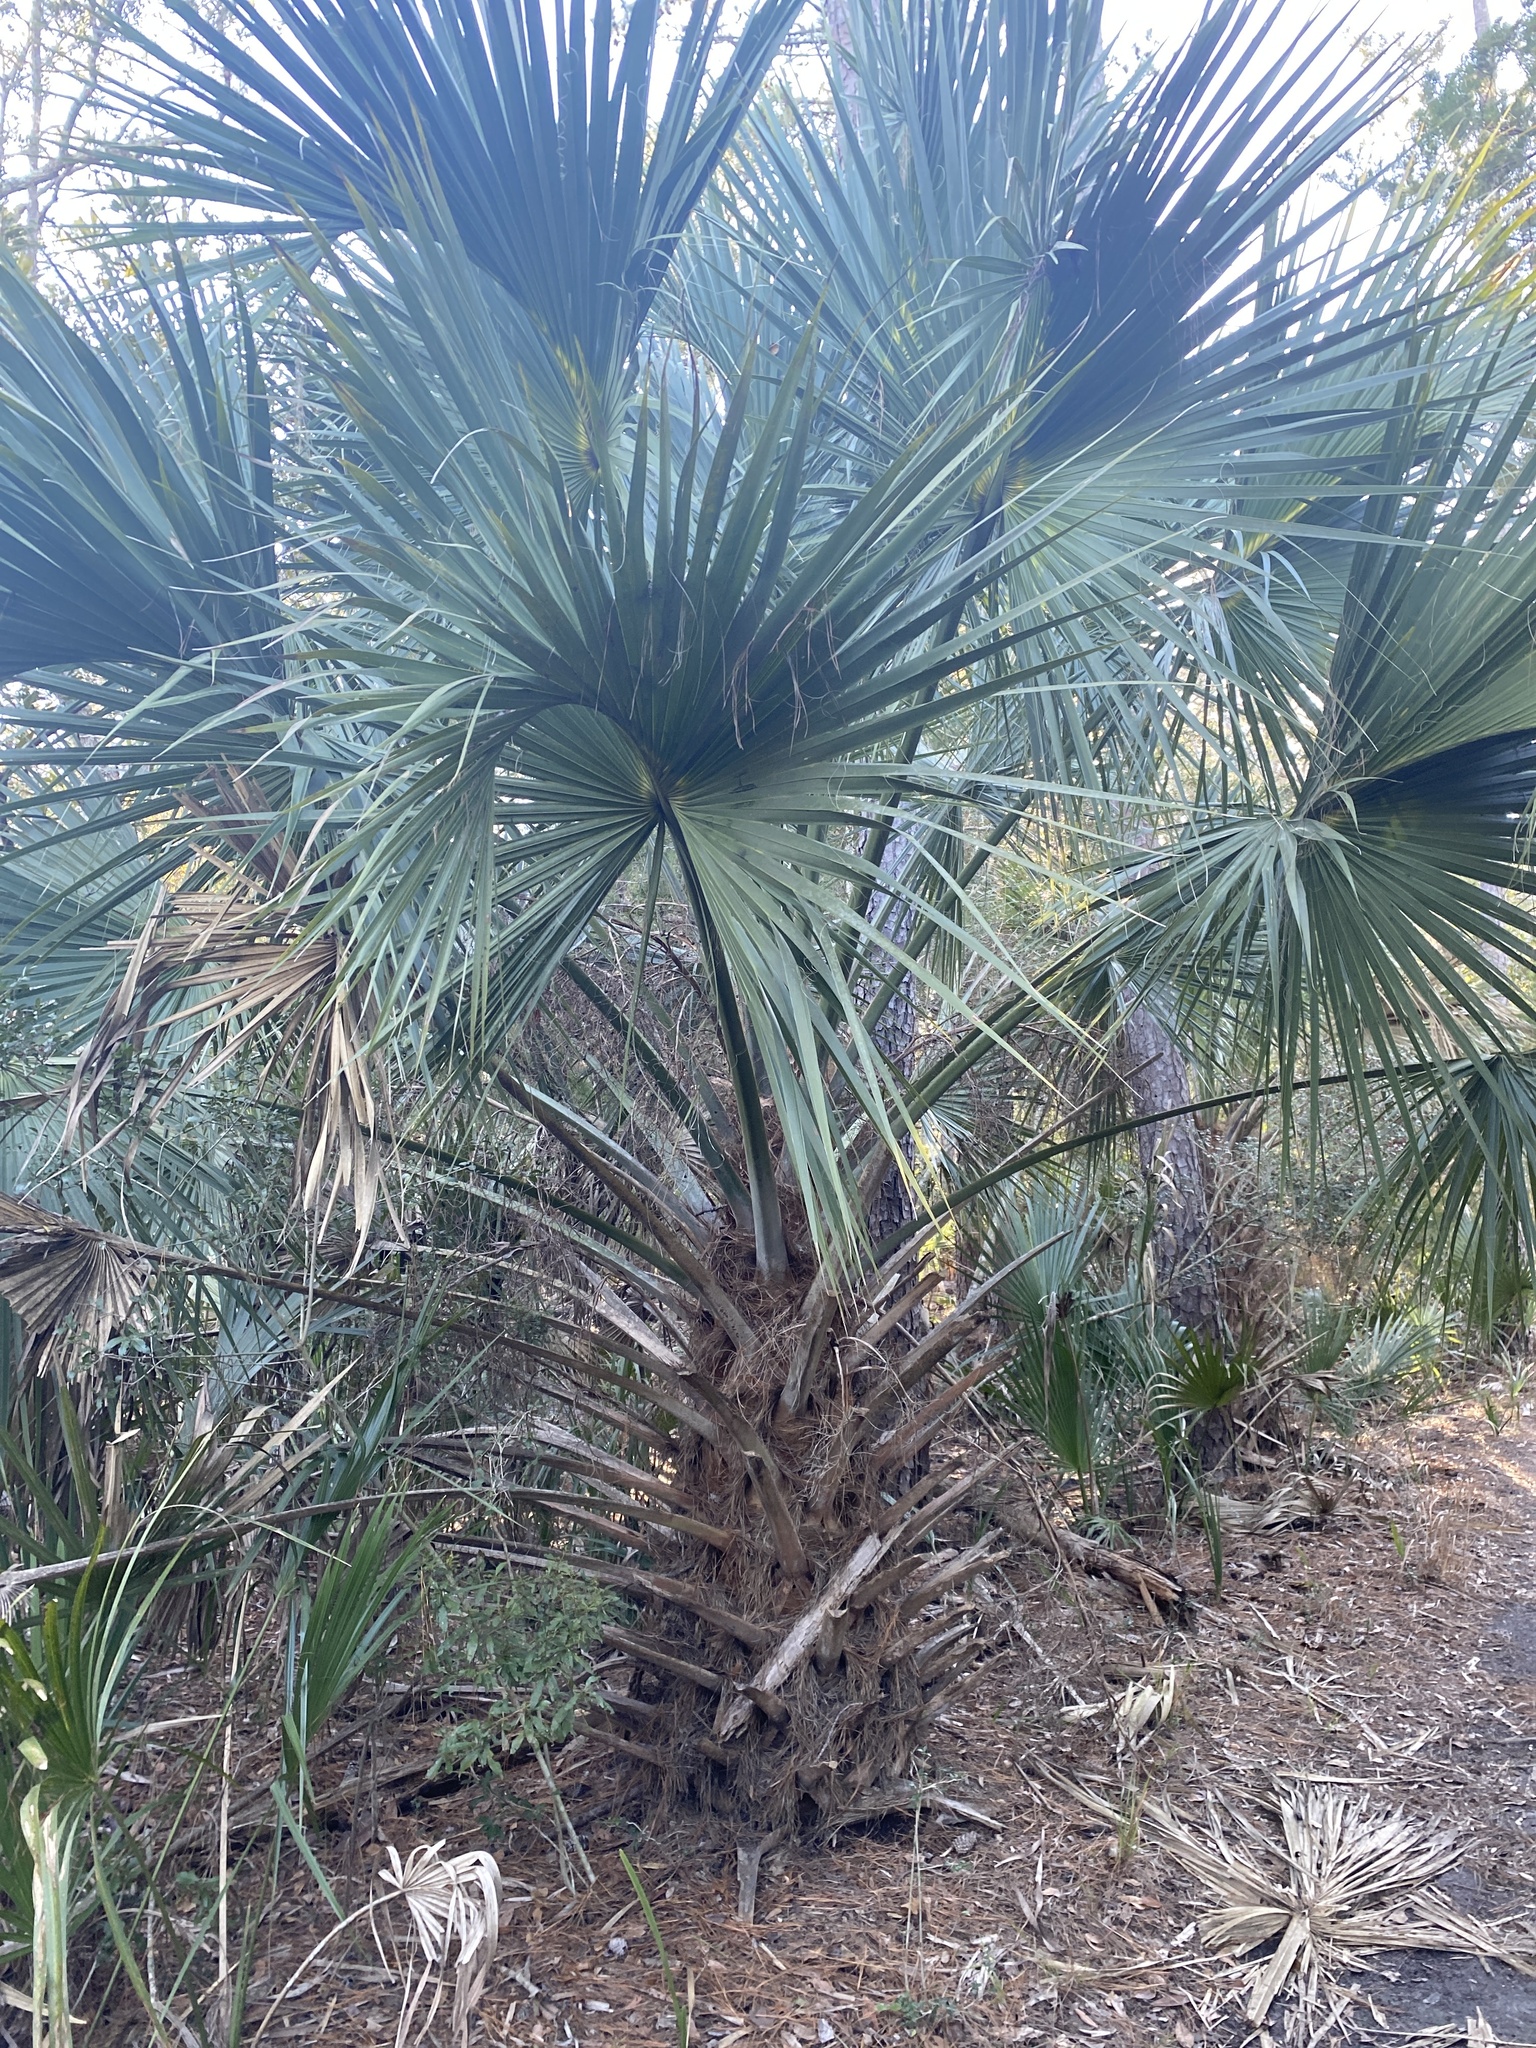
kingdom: Plantae
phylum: Tracheophyta
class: Liliopsida
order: Arecales
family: Arecaceae
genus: Sabal
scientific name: Sabal palmetto
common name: Blue palmetto
